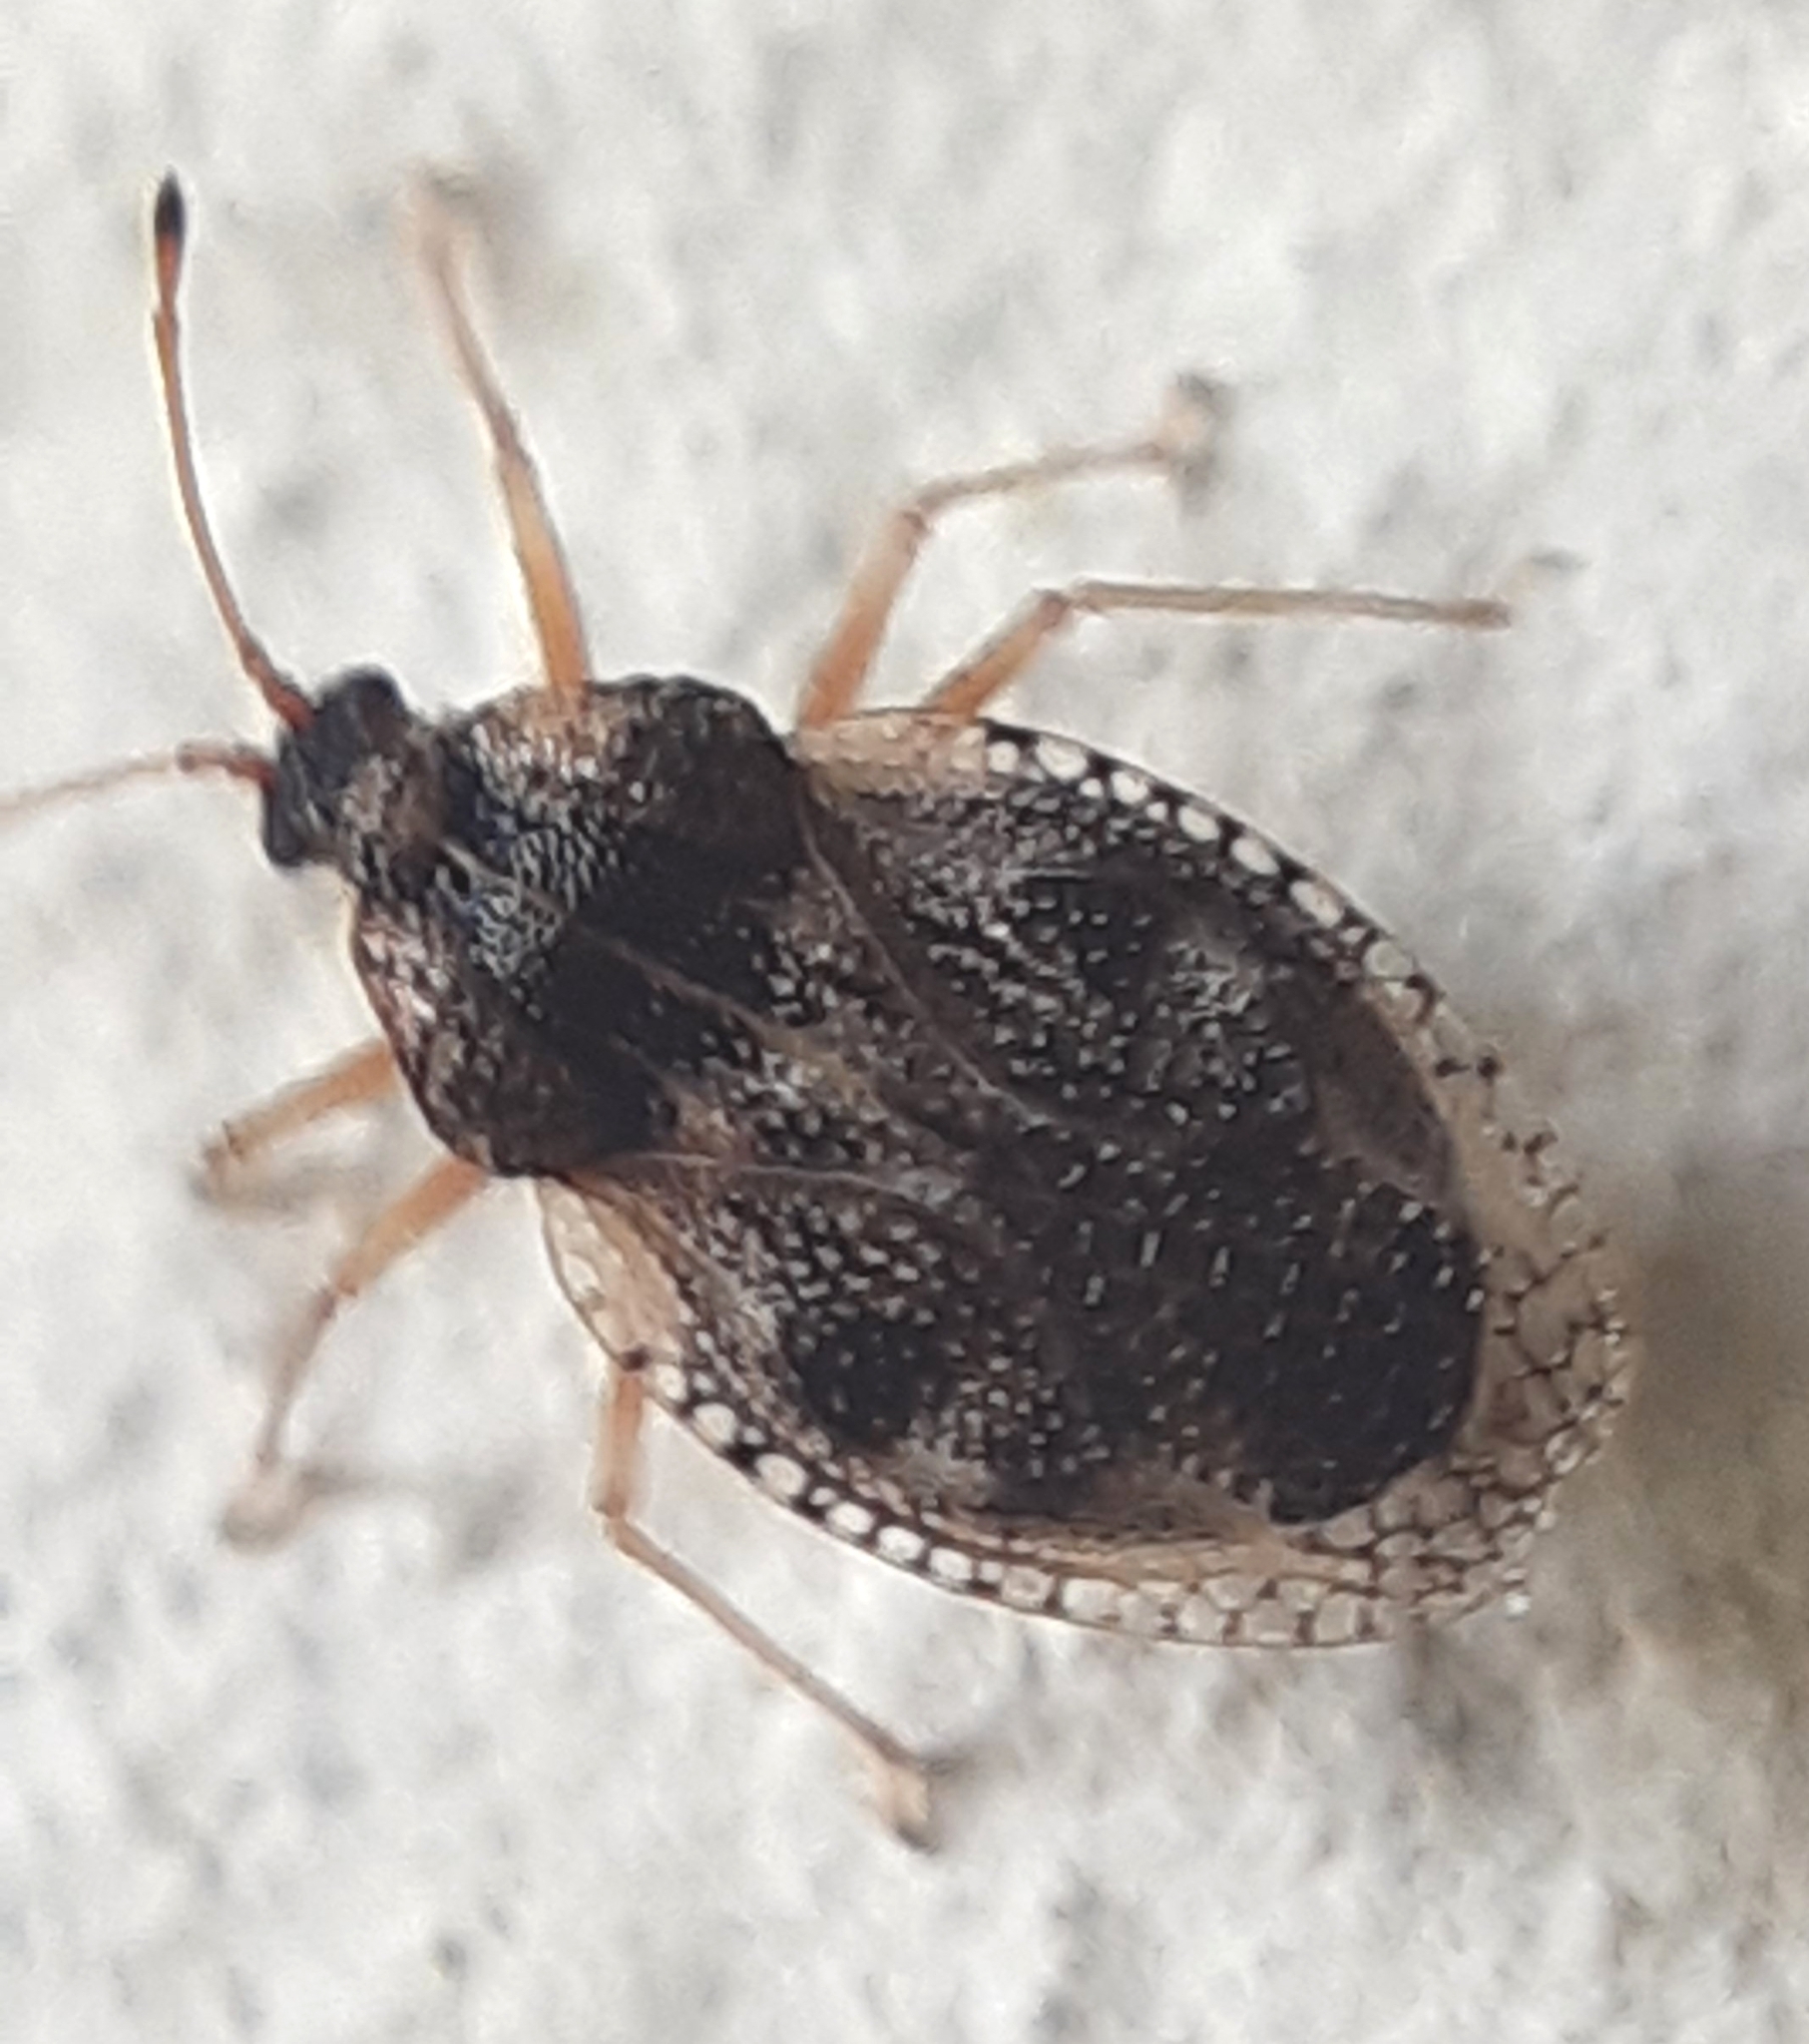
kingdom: Animalia
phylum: Arthropoda
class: Insecta
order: Hemiptera
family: Tingidae
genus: Dictyla
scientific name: Dictyla humuli
